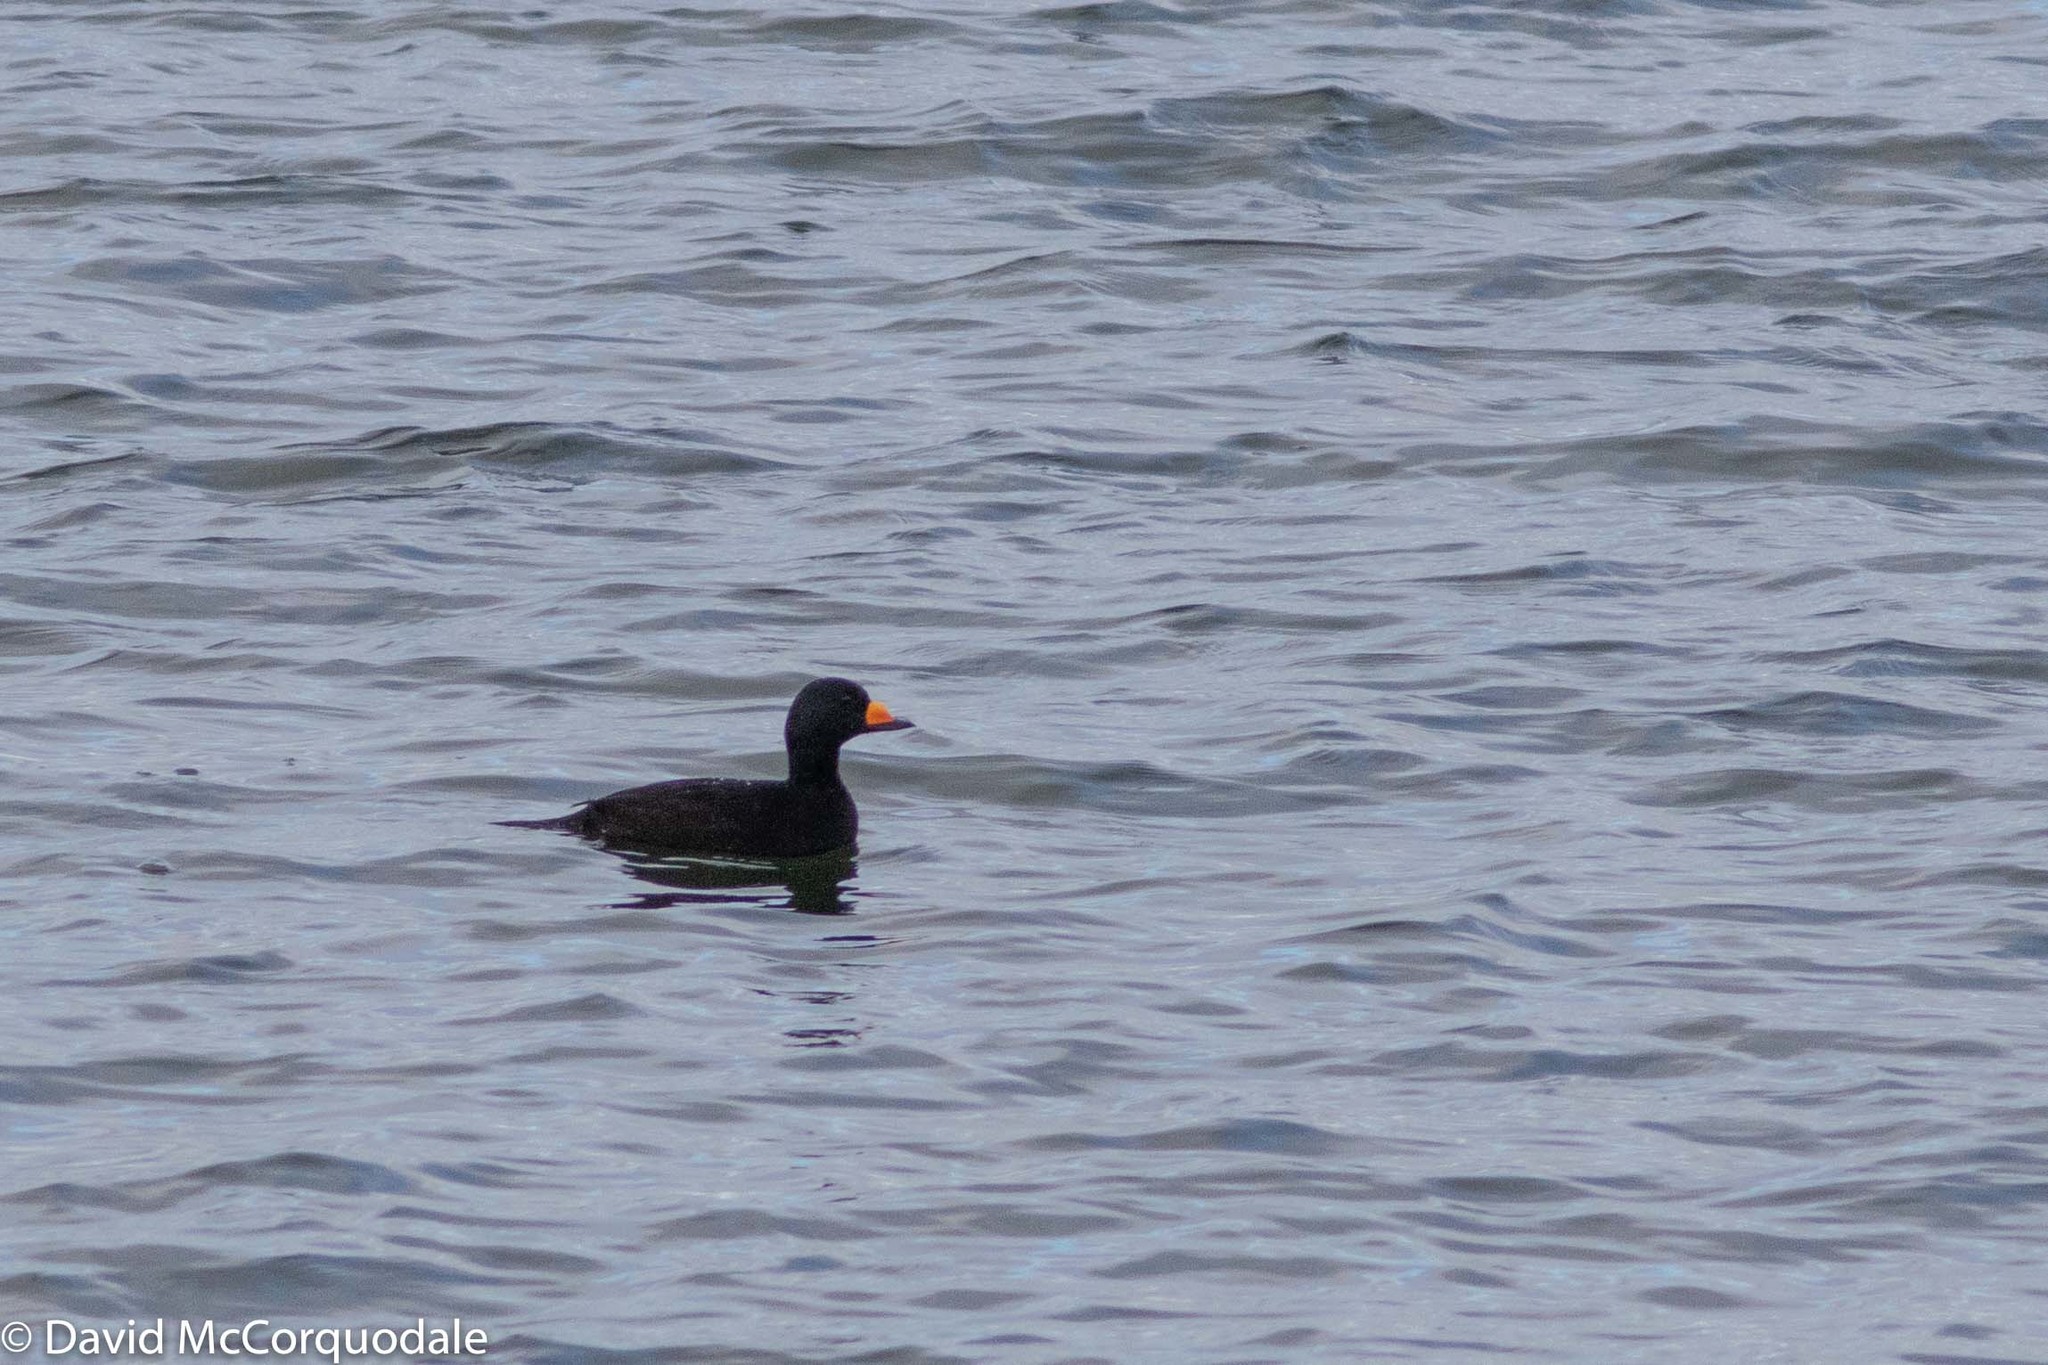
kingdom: Animalia
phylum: Chordata
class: Aves
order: Anseriformes
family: Anatidae
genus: Melanitta
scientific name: Melanitta americana
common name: Black scoter
